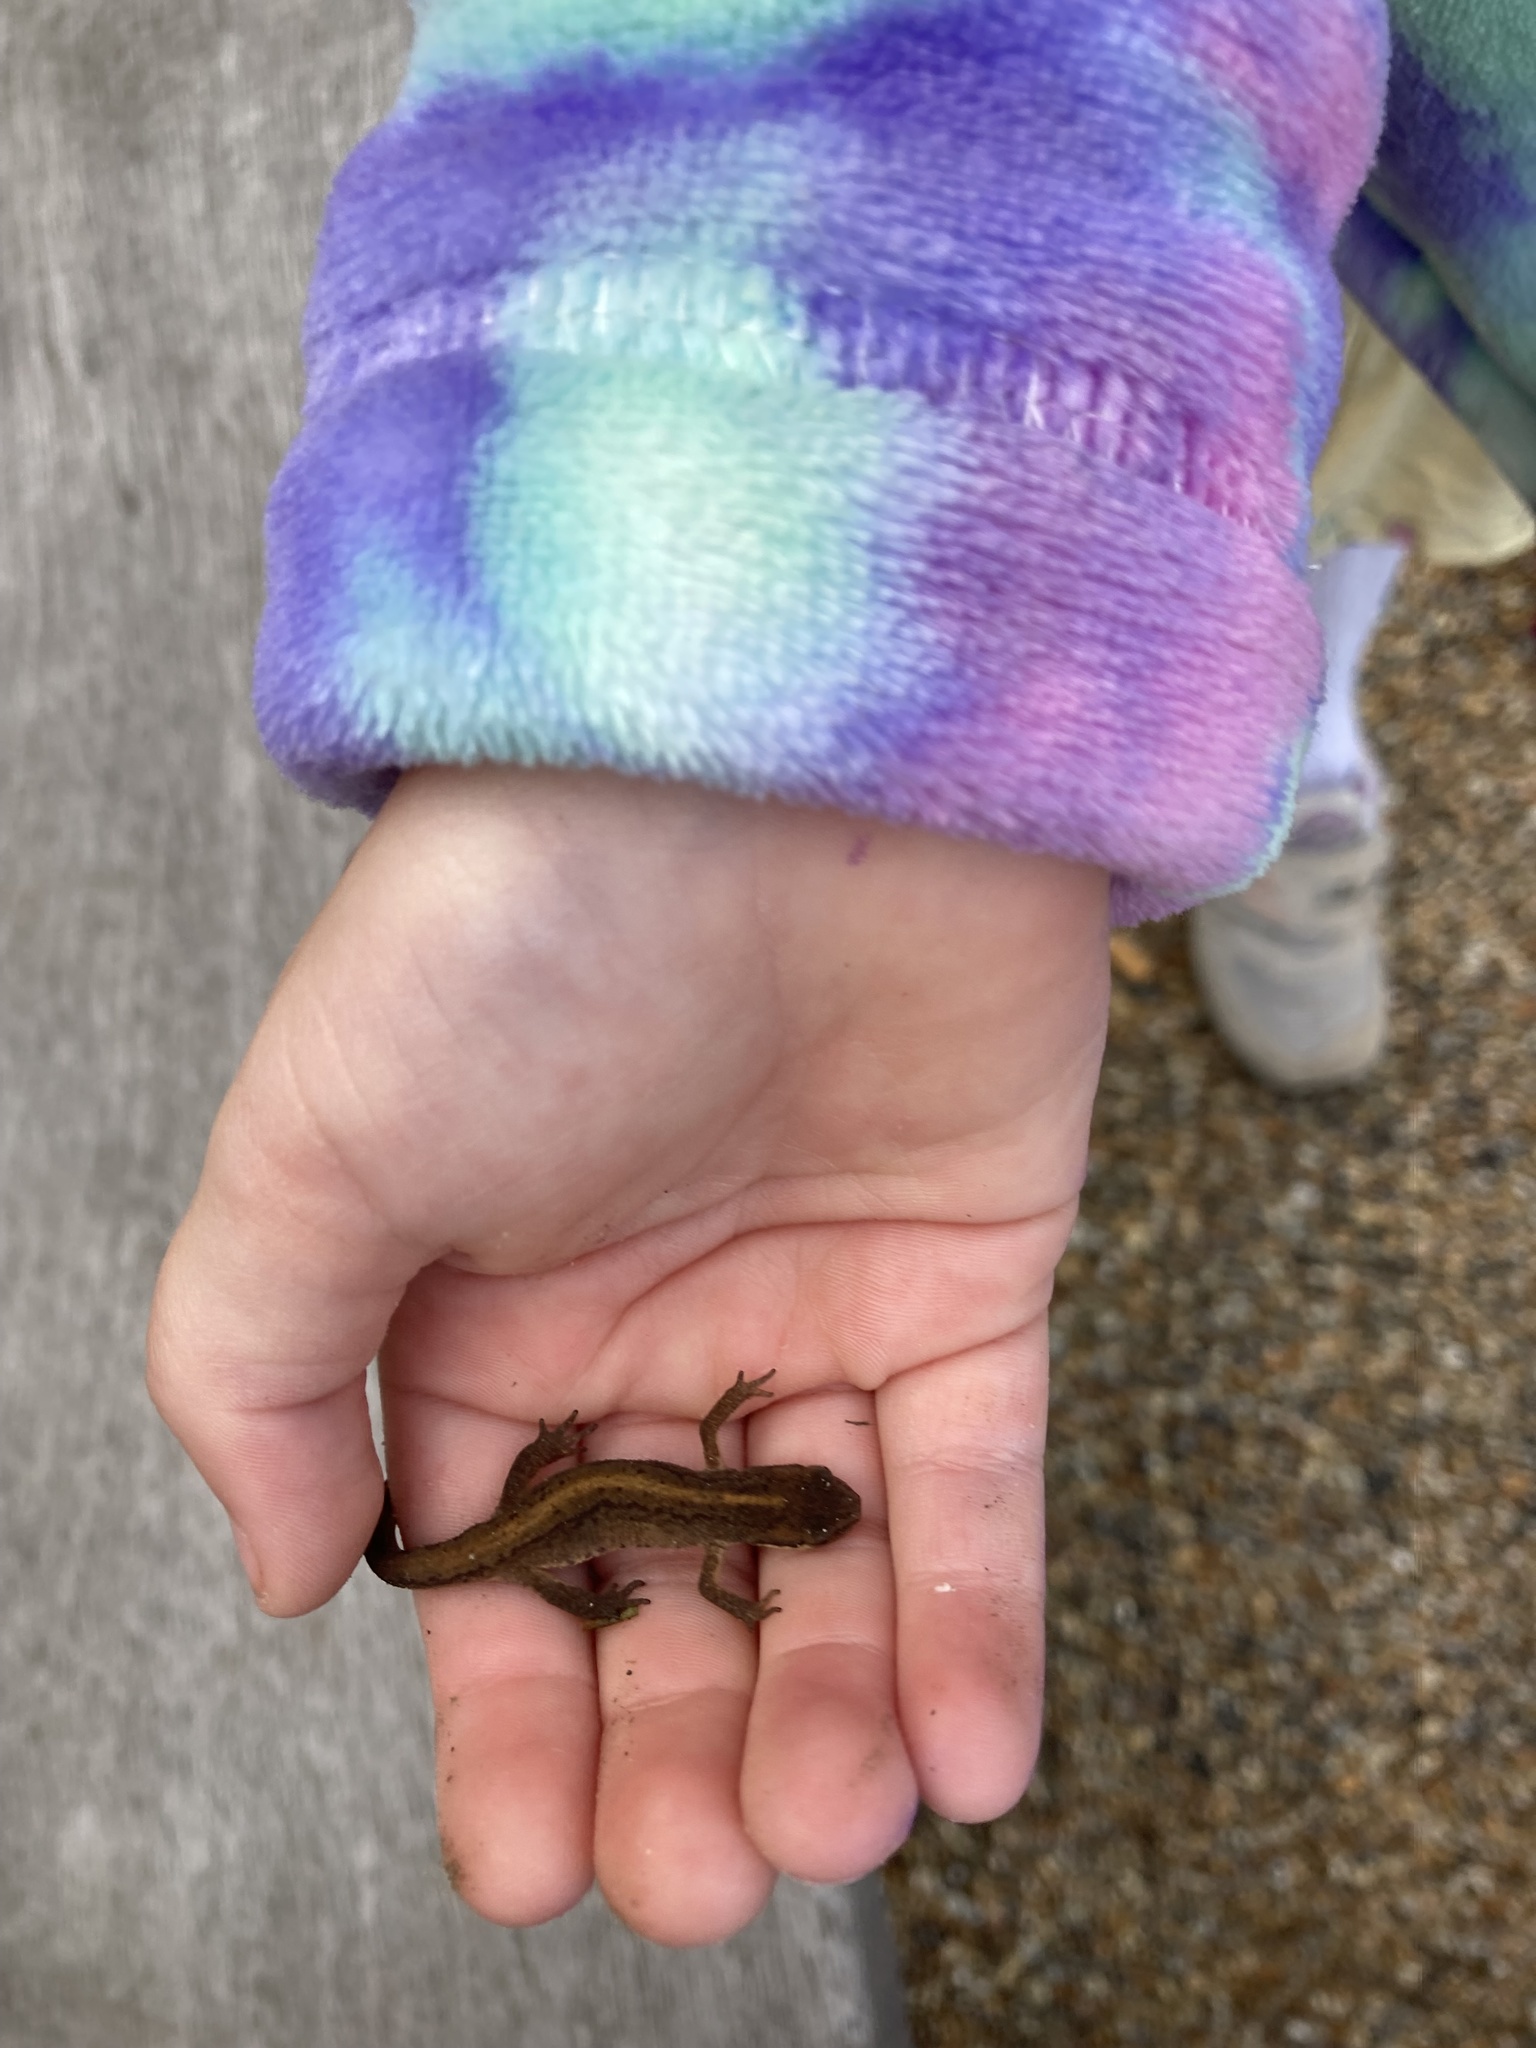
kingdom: Animalia
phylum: Chordata
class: Amphibia
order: Caudata
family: Salamandridae
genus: Lissotriton
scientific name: Lissotriton vulgaris
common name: Smooth newt
